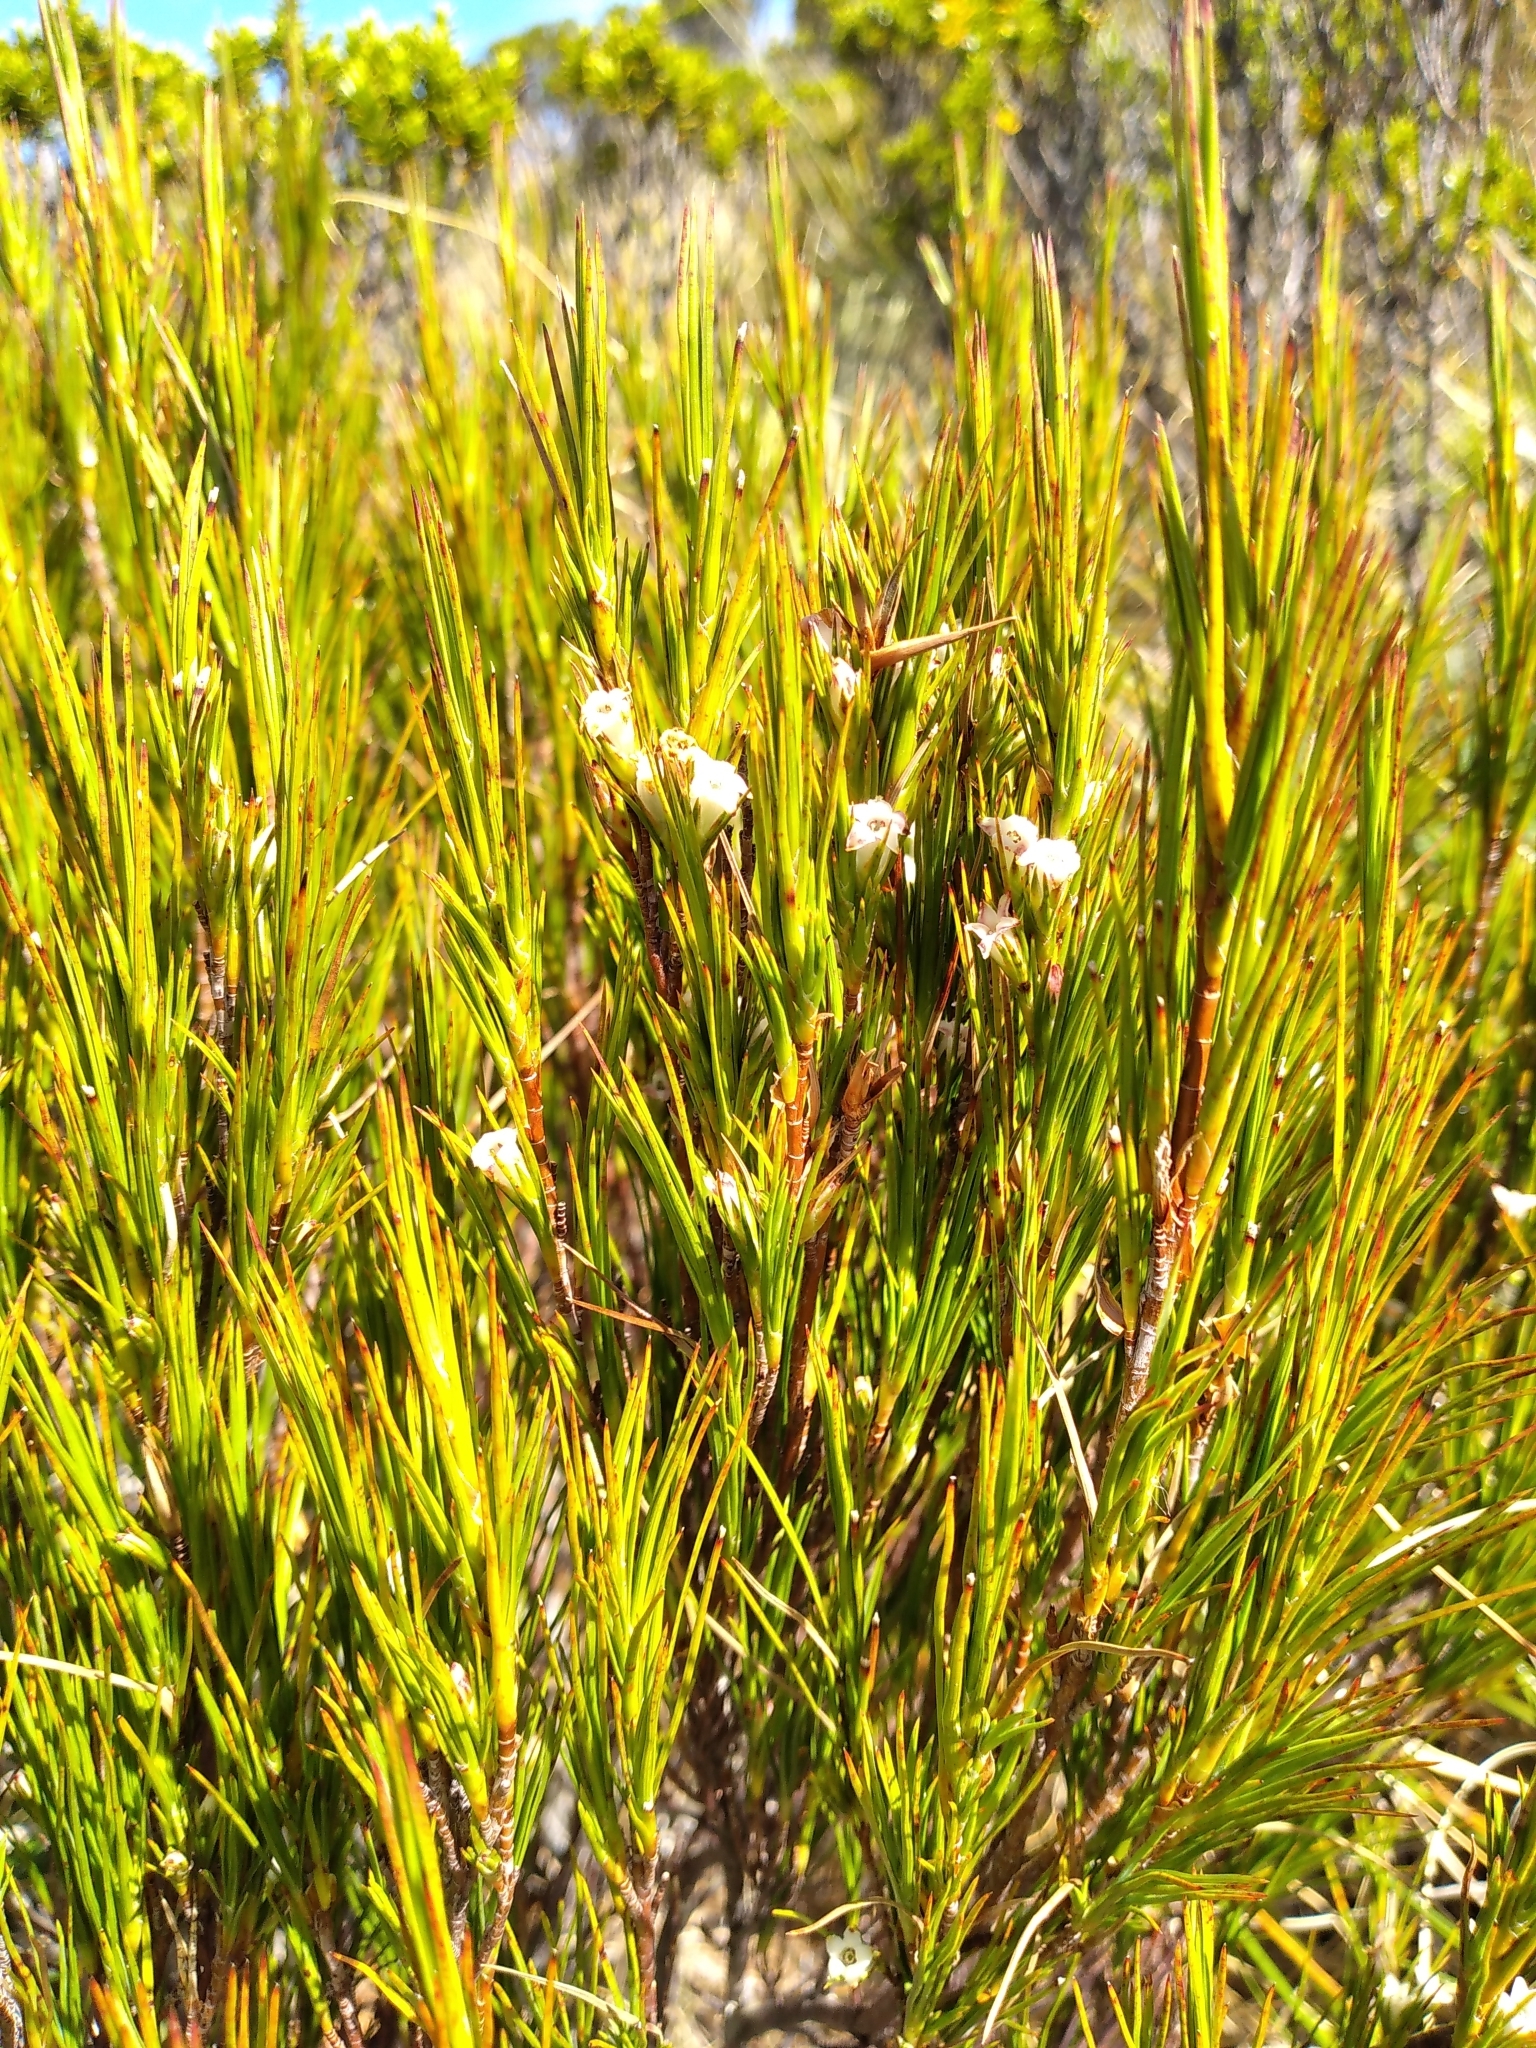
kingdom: Plantae
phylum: Tracheophyta
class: Magnoliopsida
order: Ericales
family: Ericaceae
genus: Dracophyllum
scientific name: Dracophyllum rosmarinifolium
